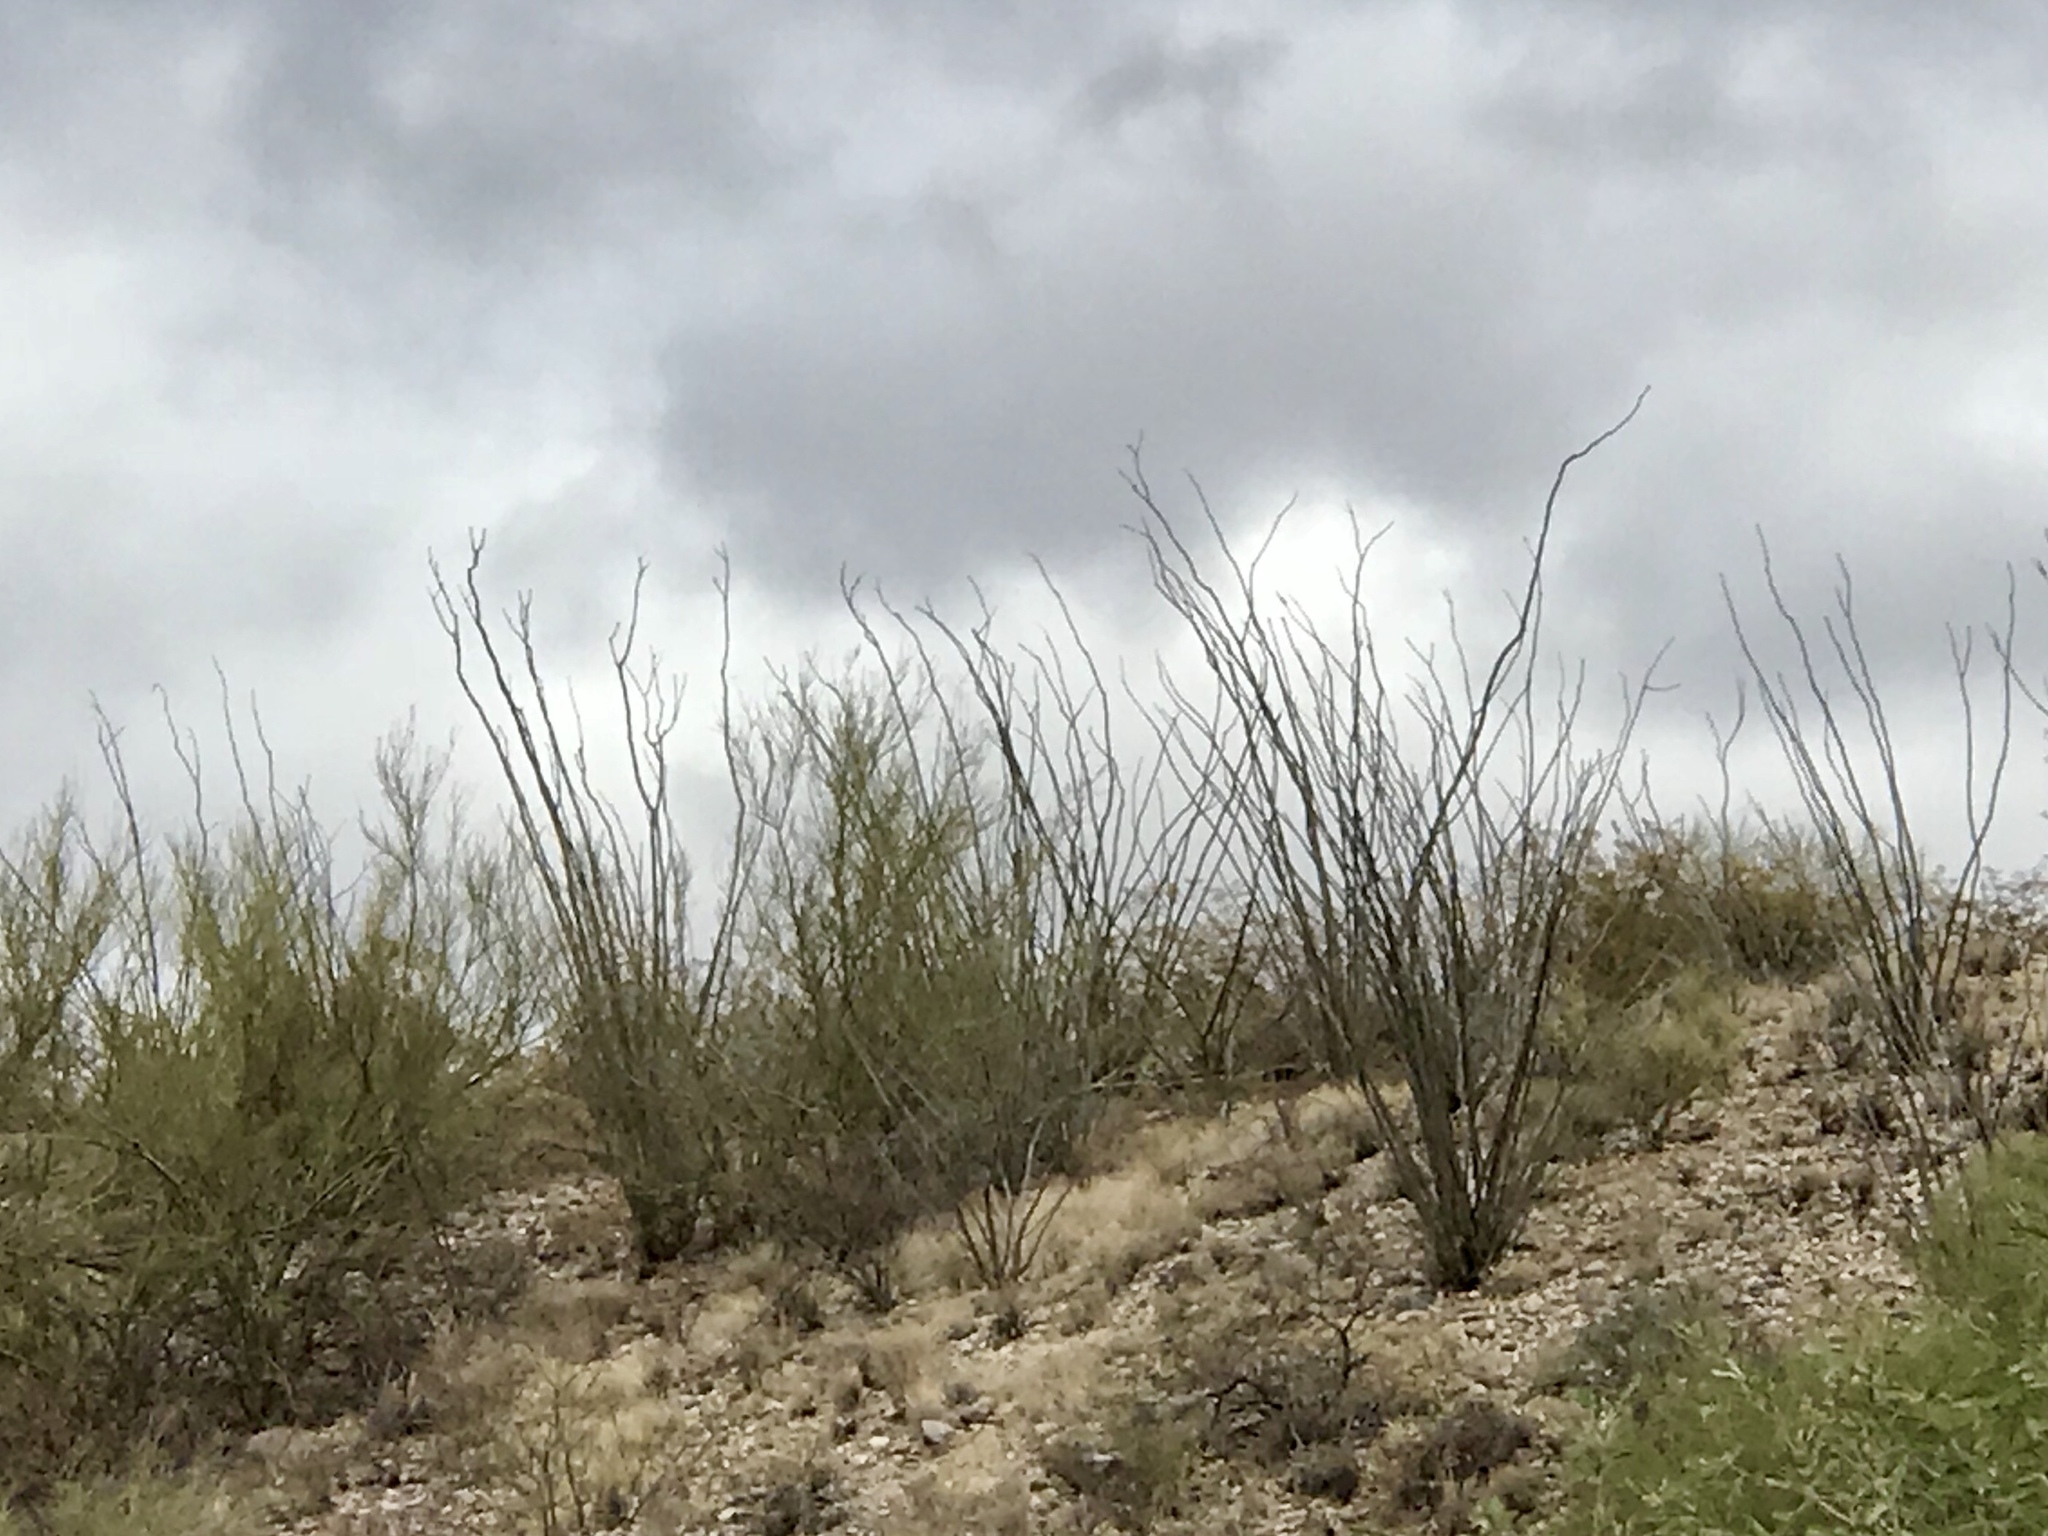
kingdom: Plantae
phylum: Tracheophyta
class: Magnoliopsida
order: Ericales
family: Fouquieriaceae
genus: Fouquieria
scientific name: Fouquieria splendens
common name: Vine-cactus
